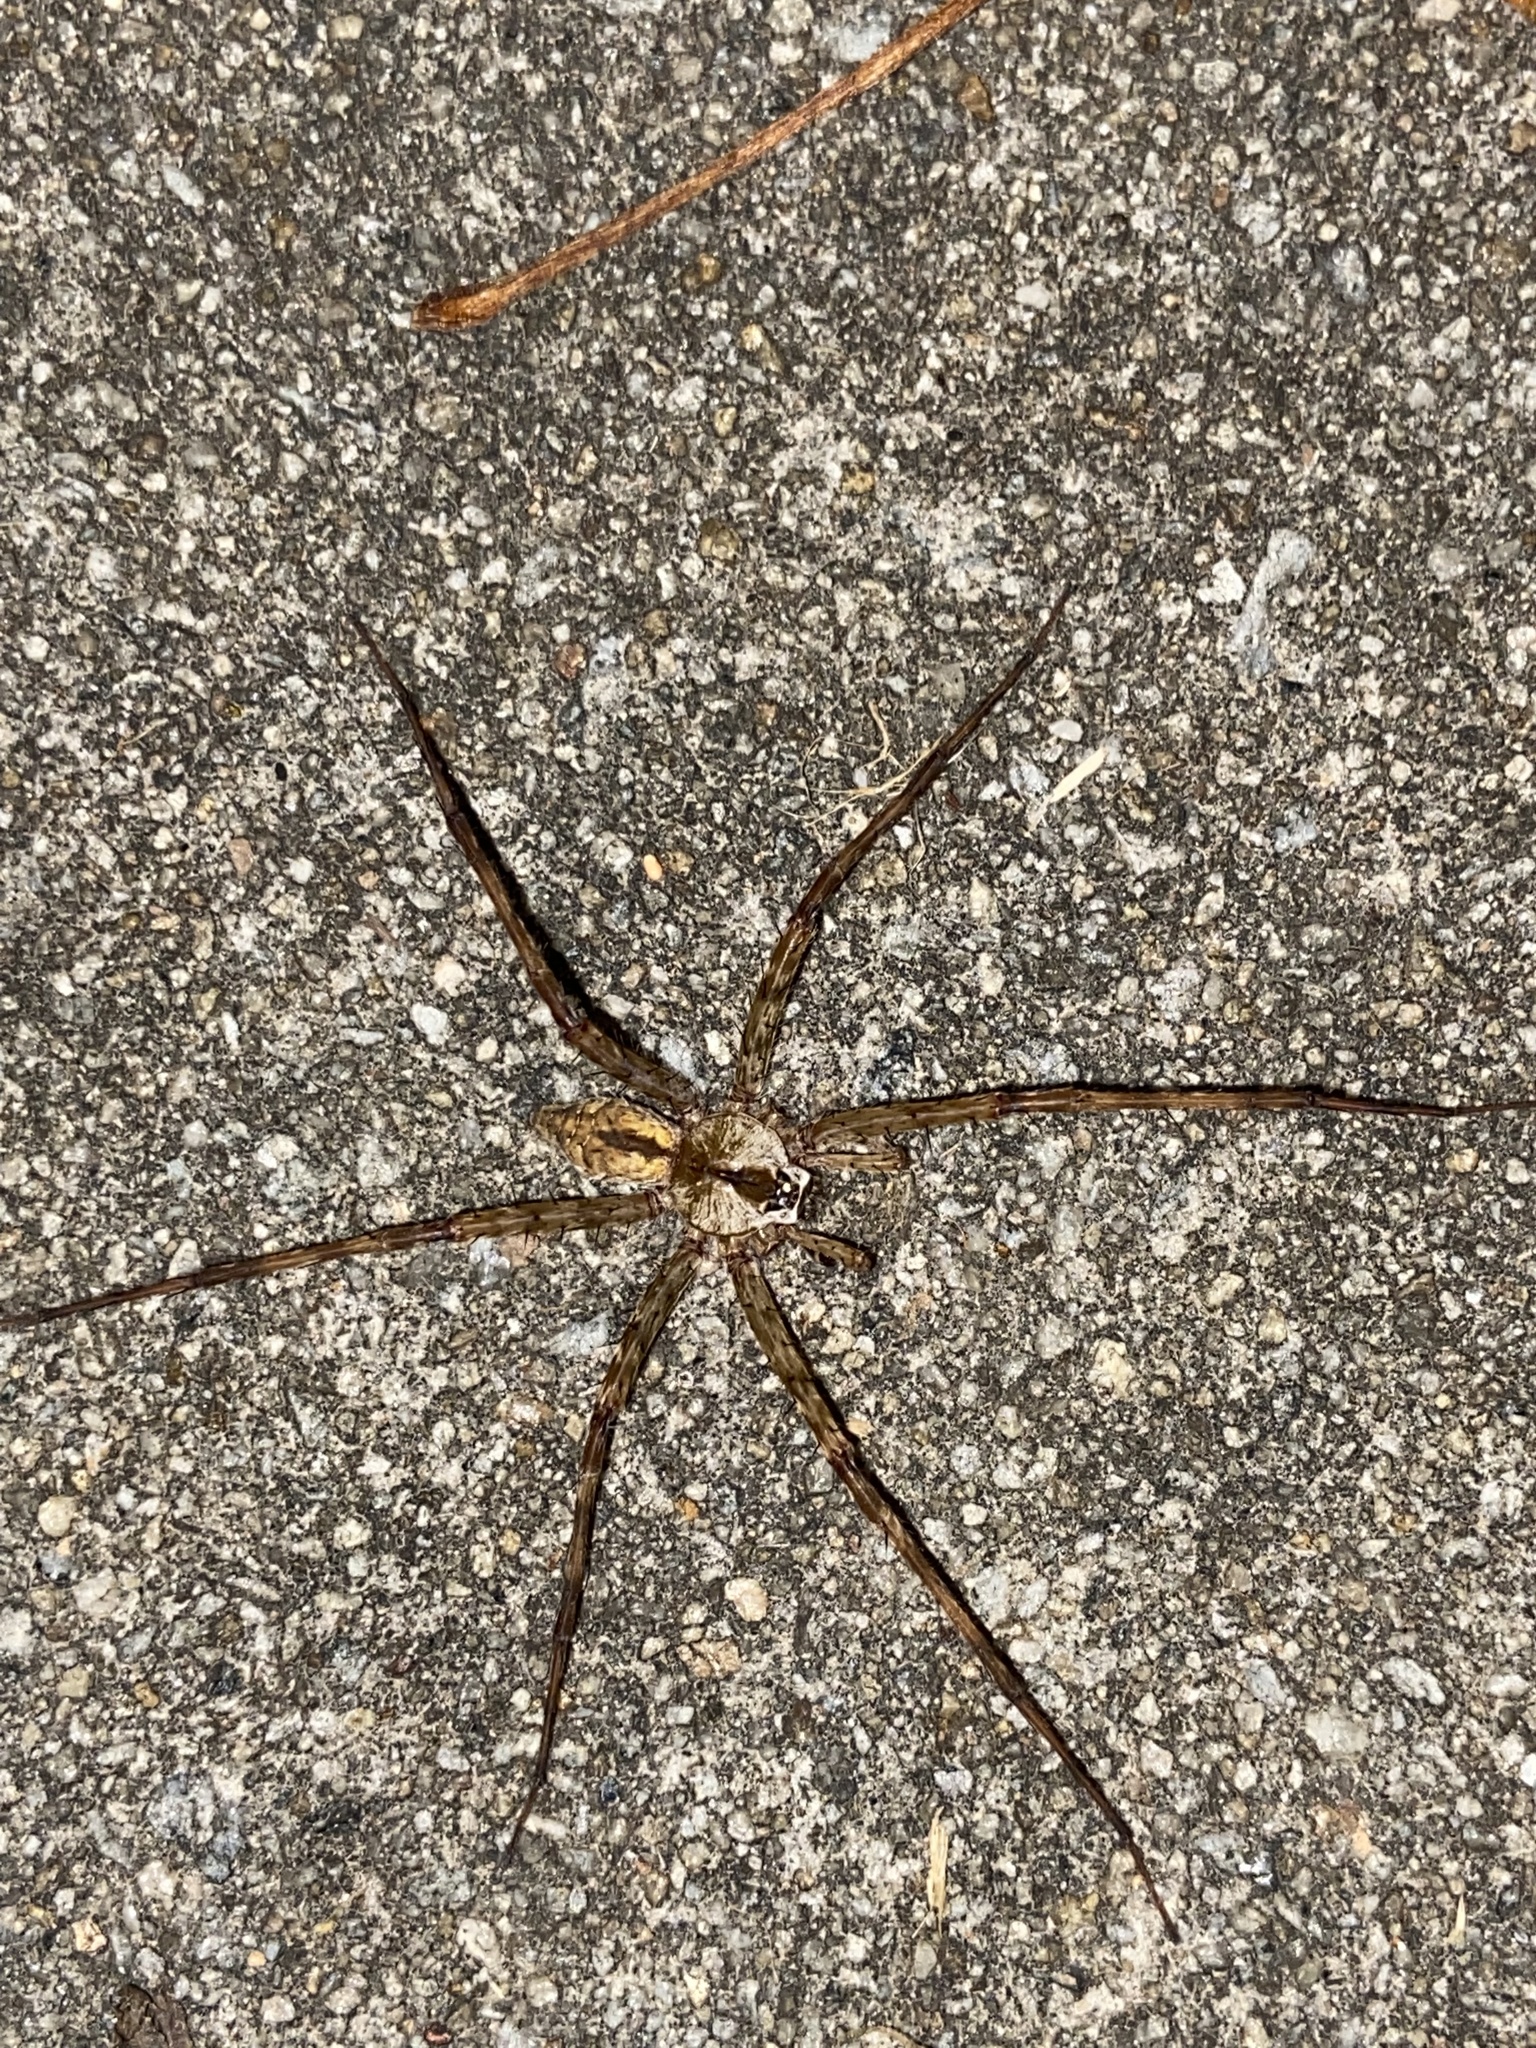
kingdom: Animalia
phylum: Arthropoda
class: Arachnida
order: Araneae
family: Pisauridae
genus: Dolomedes
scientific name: Dolomedes albineus
